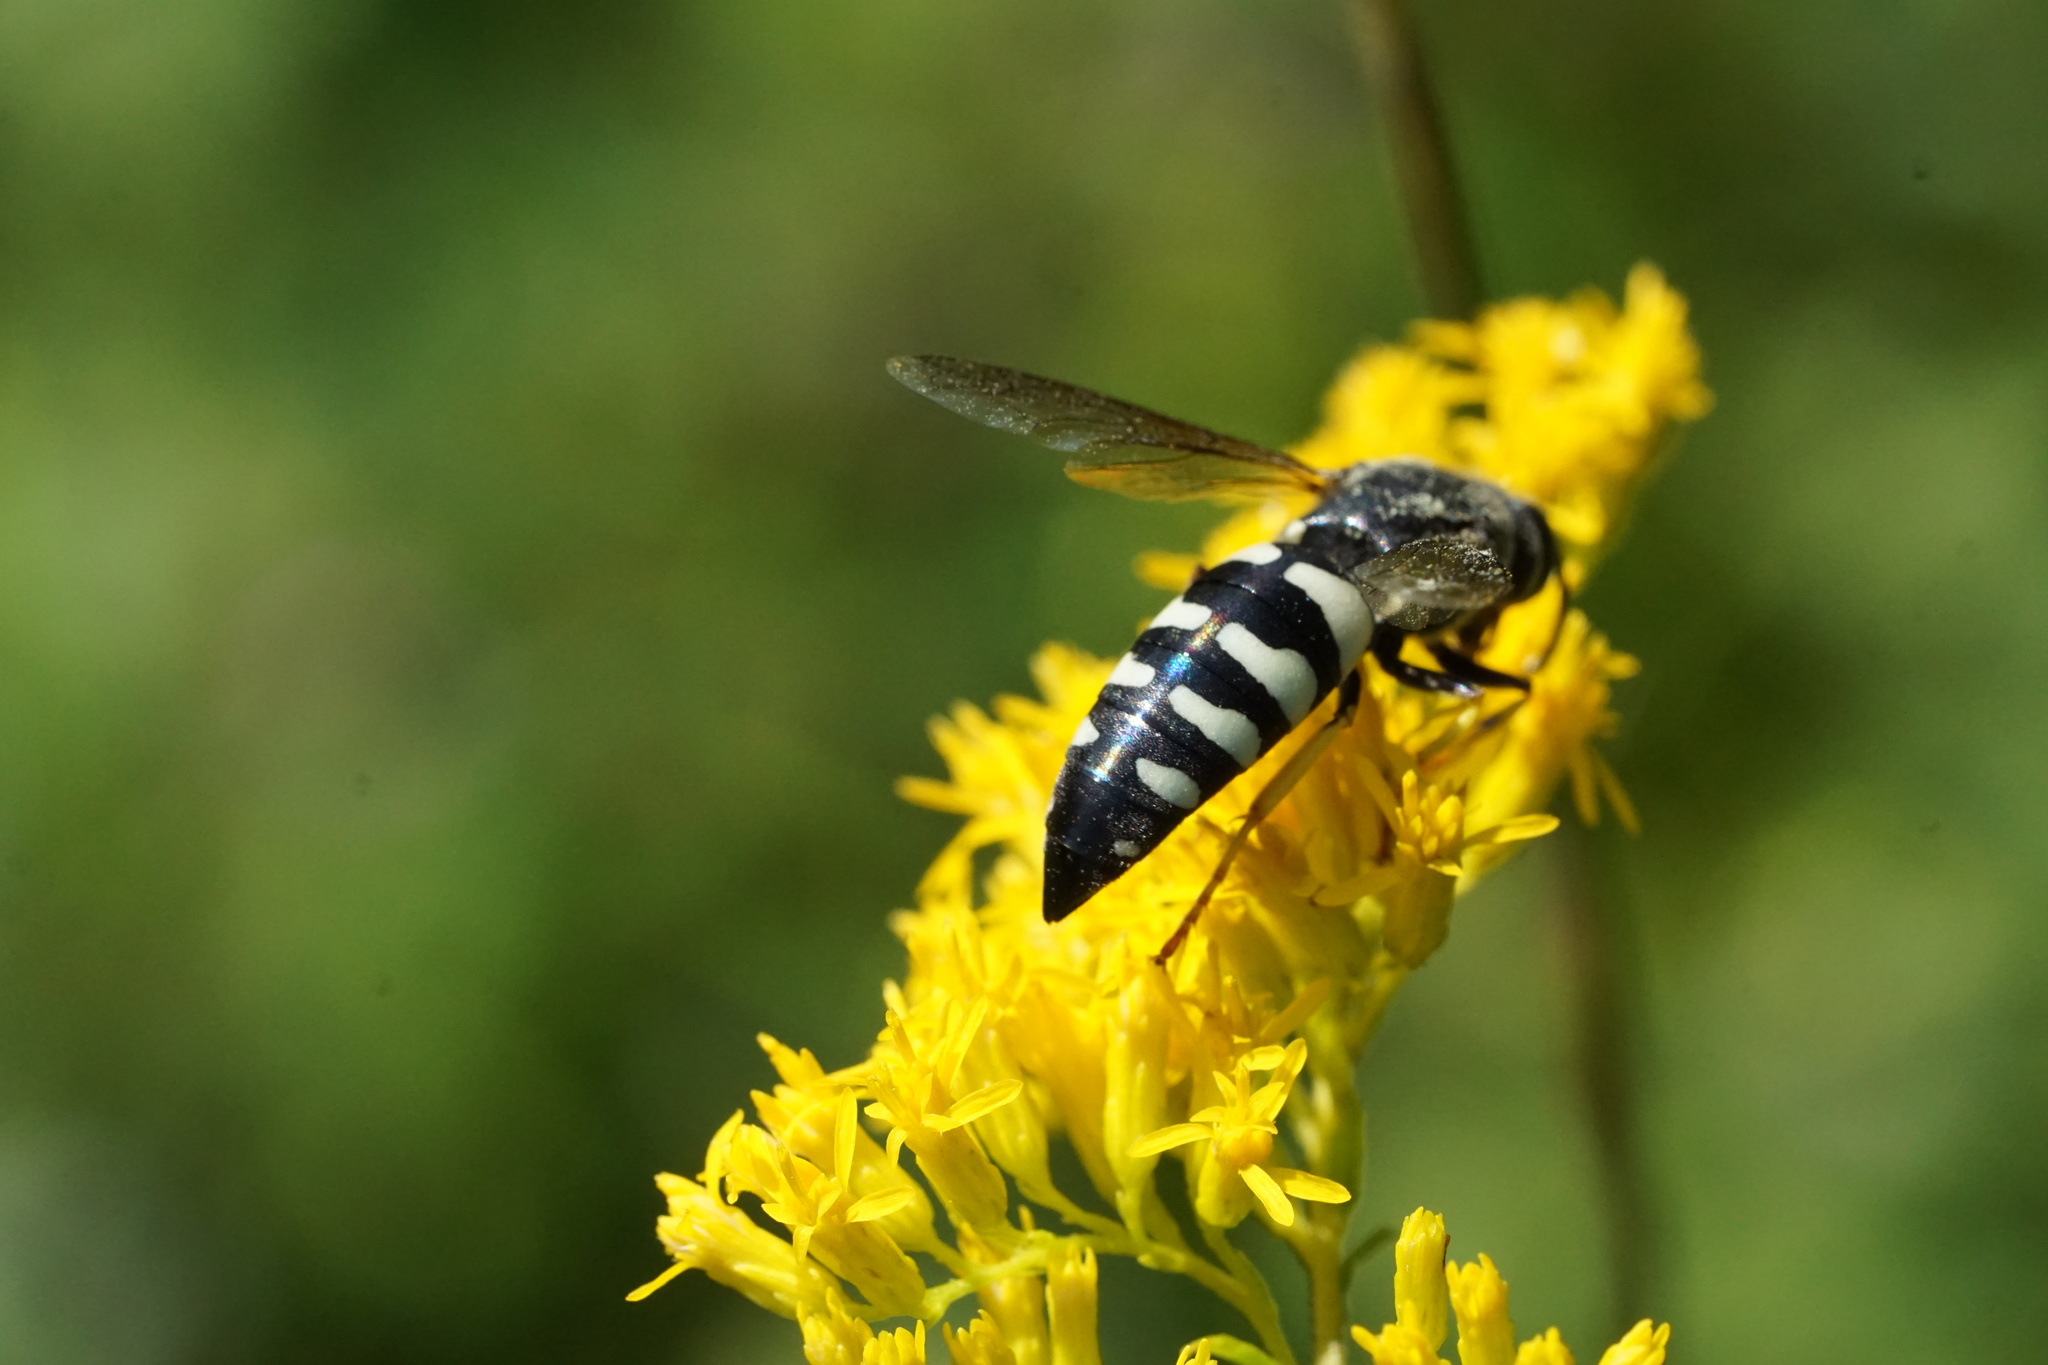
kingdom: Animalia
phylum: Arthropoda
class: Insecta
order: Hymenoptera
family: Crabronidae
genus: Bicyrtes
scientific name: Bicyrtes quadrifasciatus
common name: Four-banded stink bug hunter wasp
